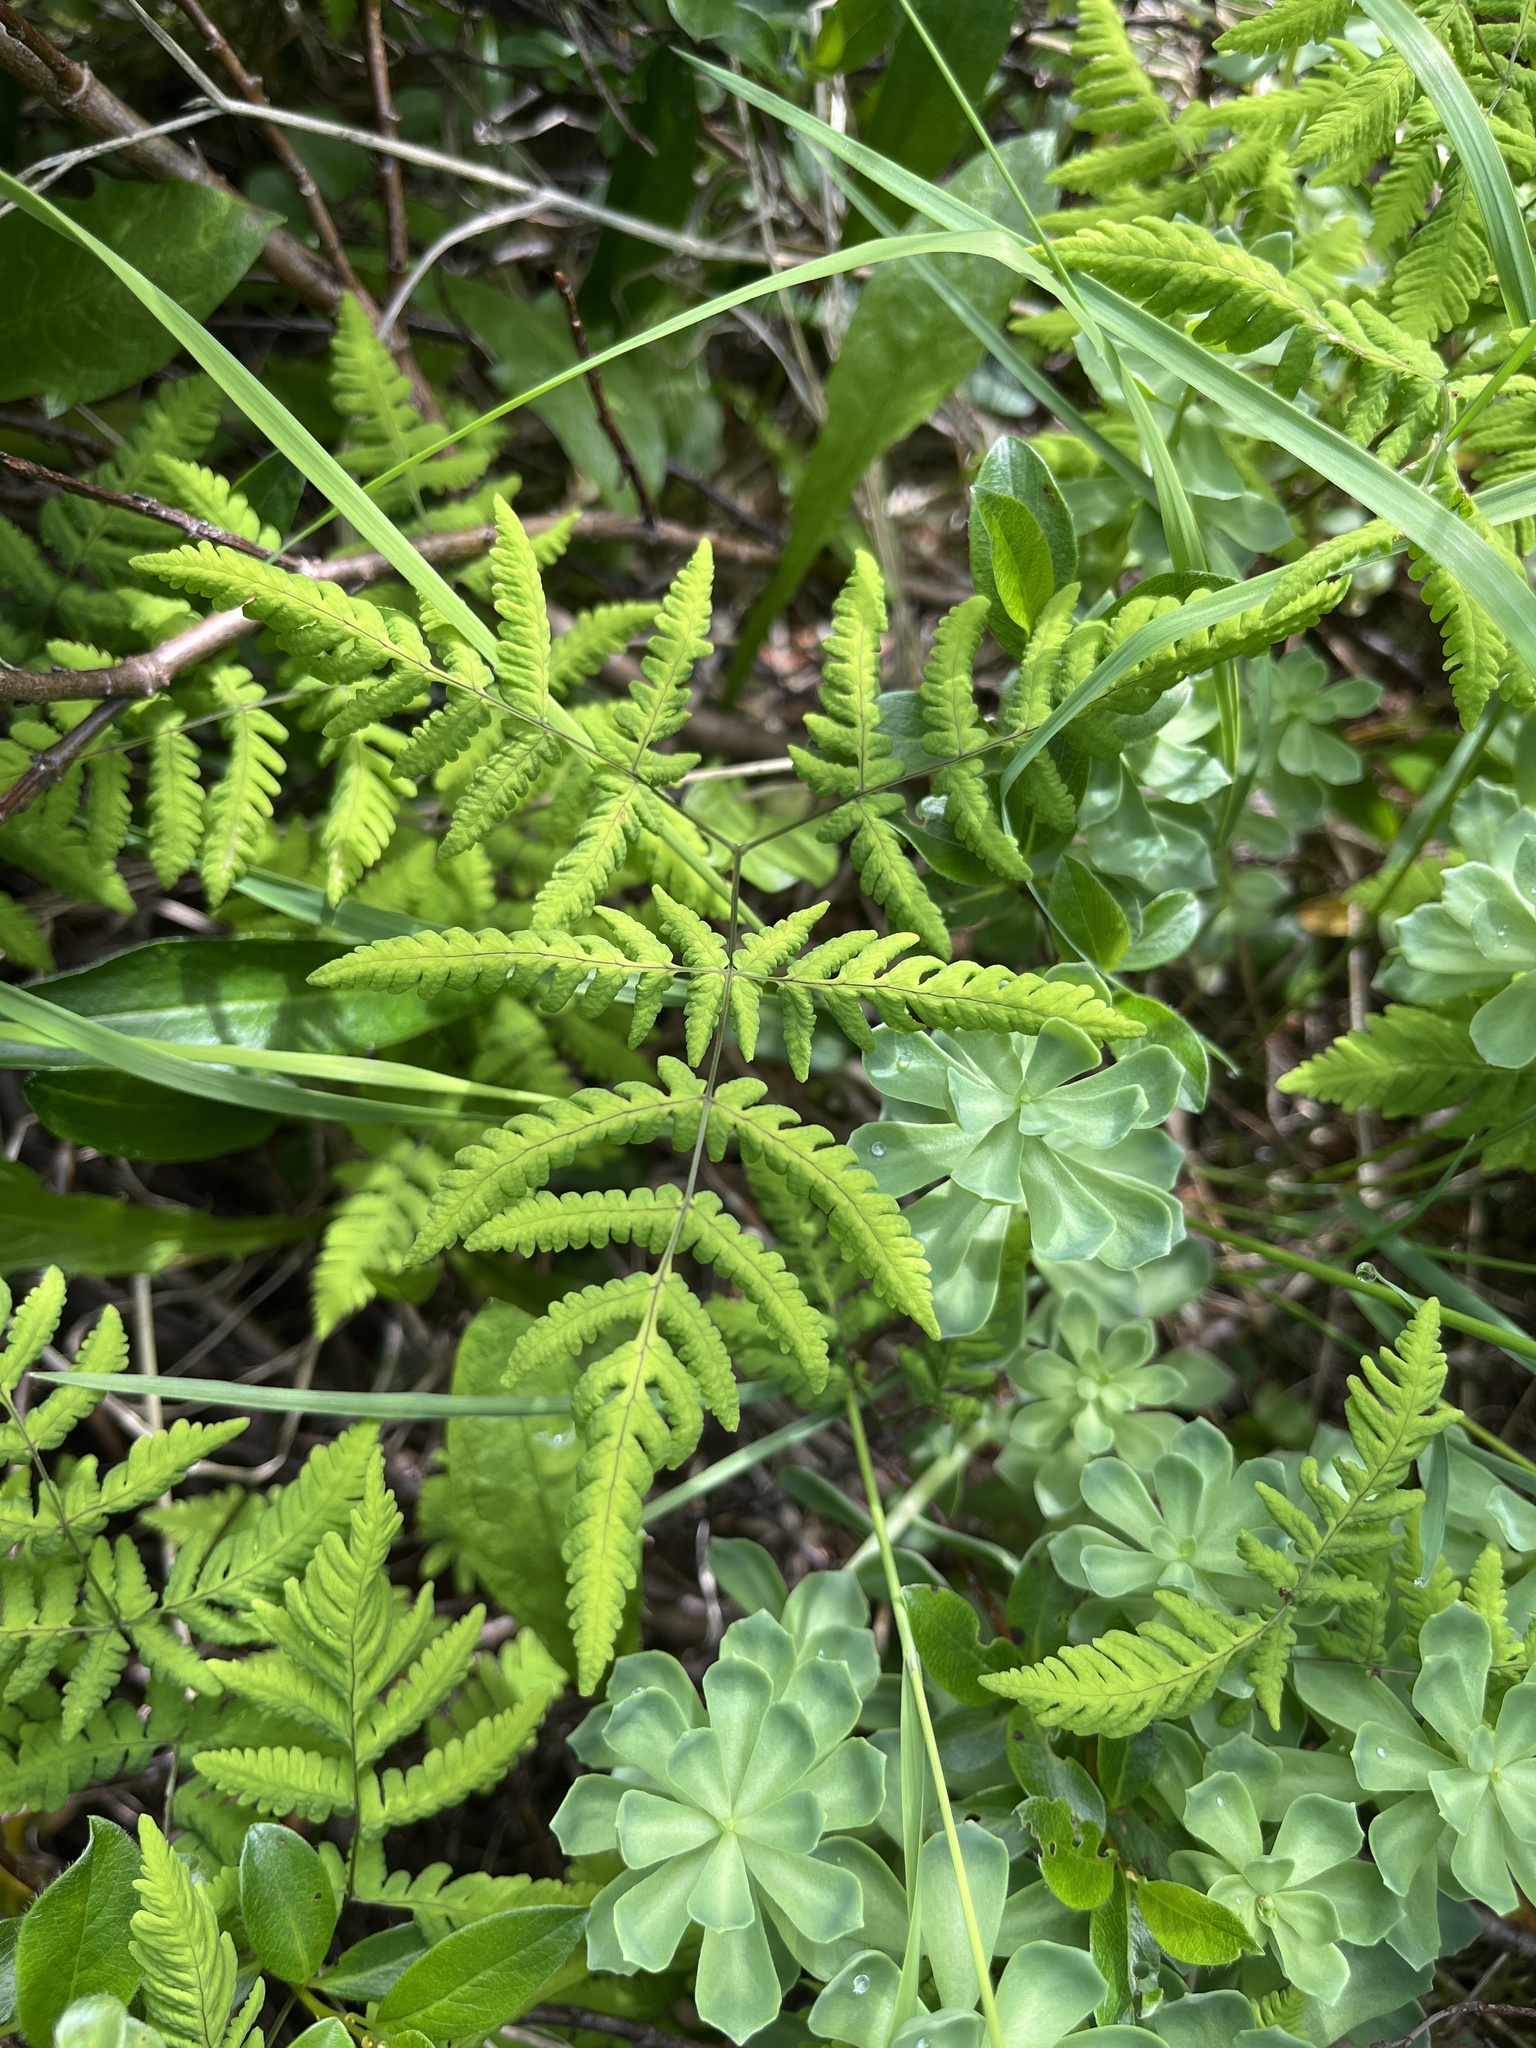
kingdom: Plantae
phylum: Tracheophyta
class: Polypodiopsida
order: Polypodiales
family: Cystopteridaceae
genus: Gymnocarpium
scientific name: Gymnocarpium dryopteris
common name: Oak fern
